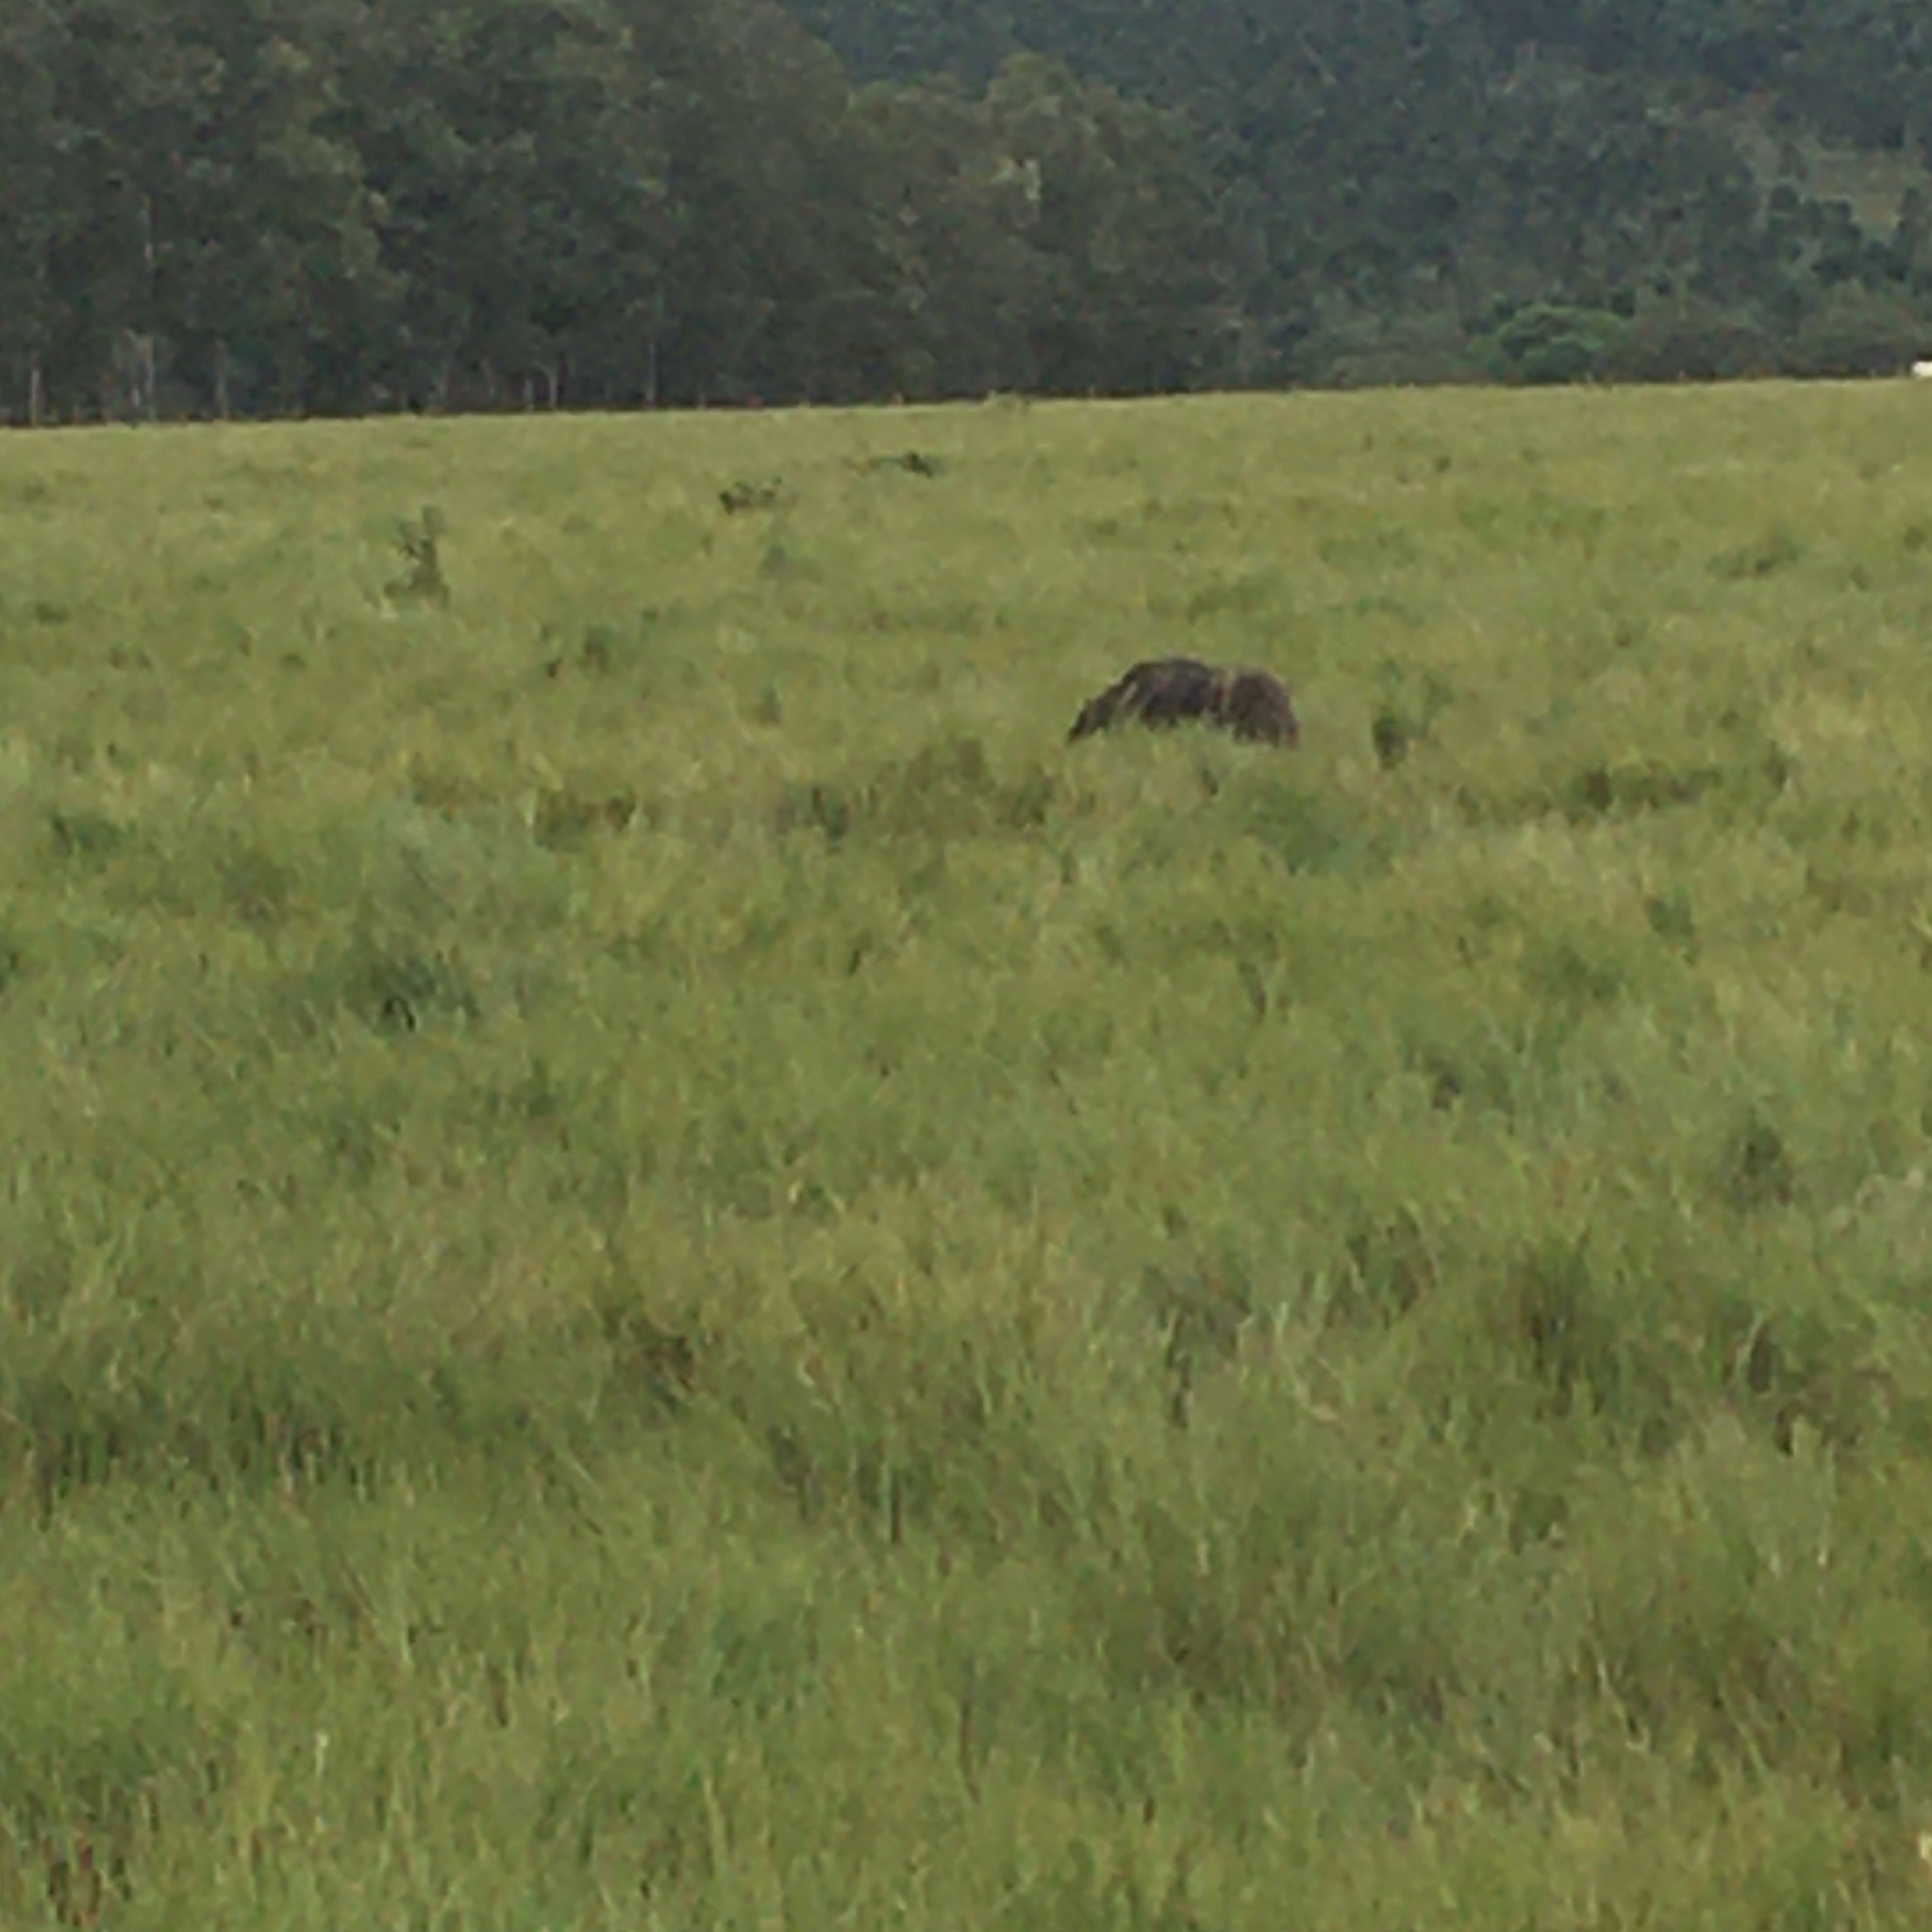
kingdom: Animalia
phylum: Chordata
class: Mammalia
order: Pilosa
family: Myrmecophagidae
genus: Myrmecophaga
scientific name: Myrmecophaga tridactyla
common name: Giant anteater
